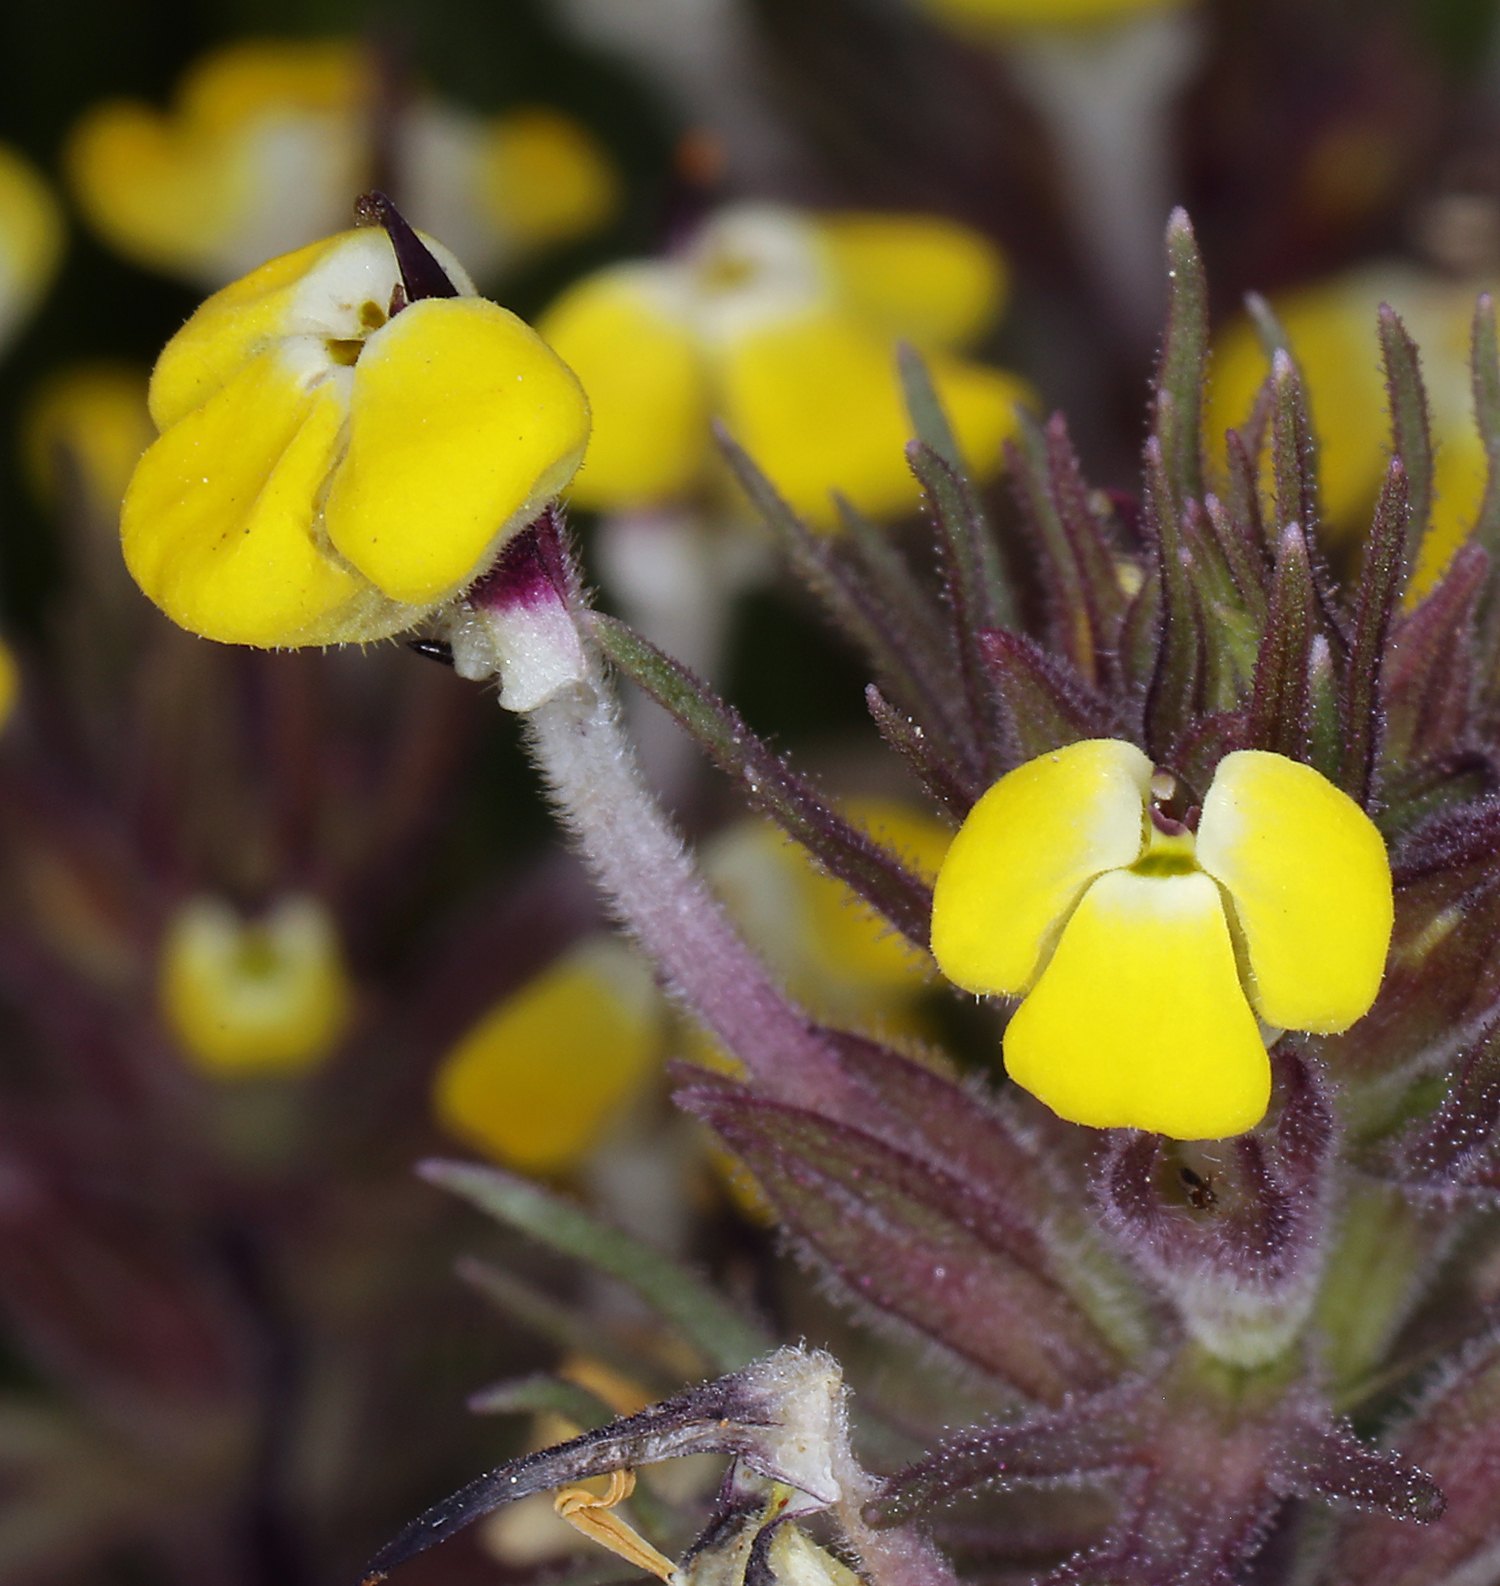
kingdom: Plantae
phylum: Tracheophyta
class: Magnoliopsida
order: Lamiales
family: Orobanchaceae
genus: Triphysaria
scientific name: Triphysaria eriantha
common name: Johnny-tuck
